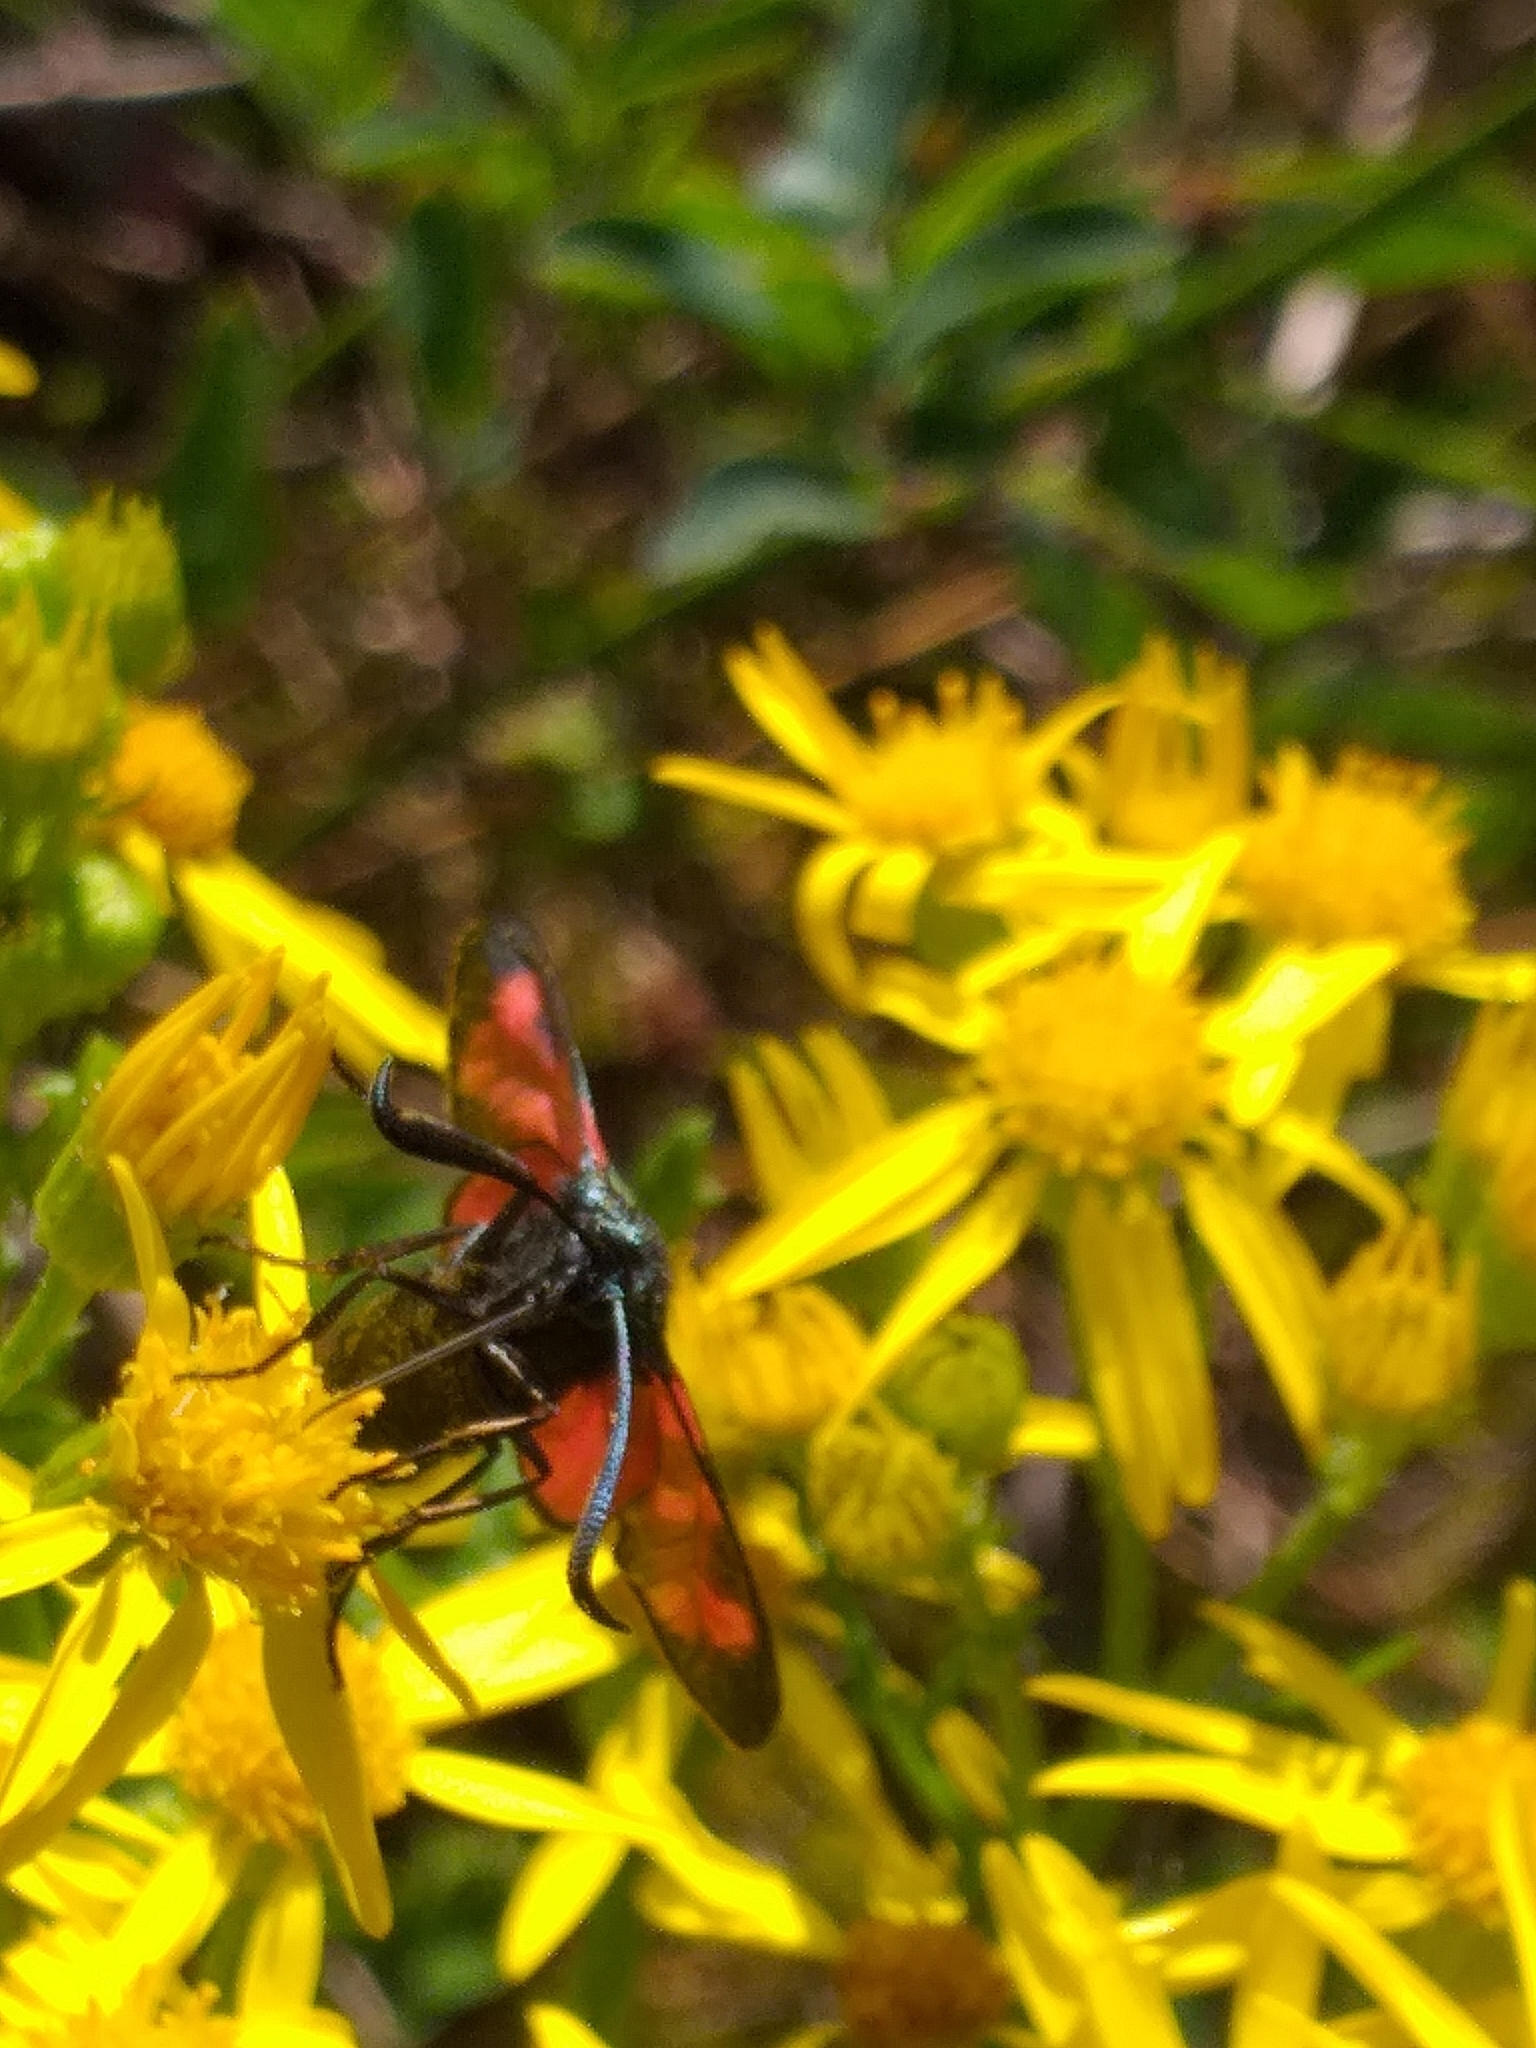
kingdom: Animalia
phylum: Arthropoda
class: Insecta
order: Lepidoptera
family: Zygaenidae
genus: Zygaena
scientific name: Zygaena filipendulae
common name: Six-spot burnet
